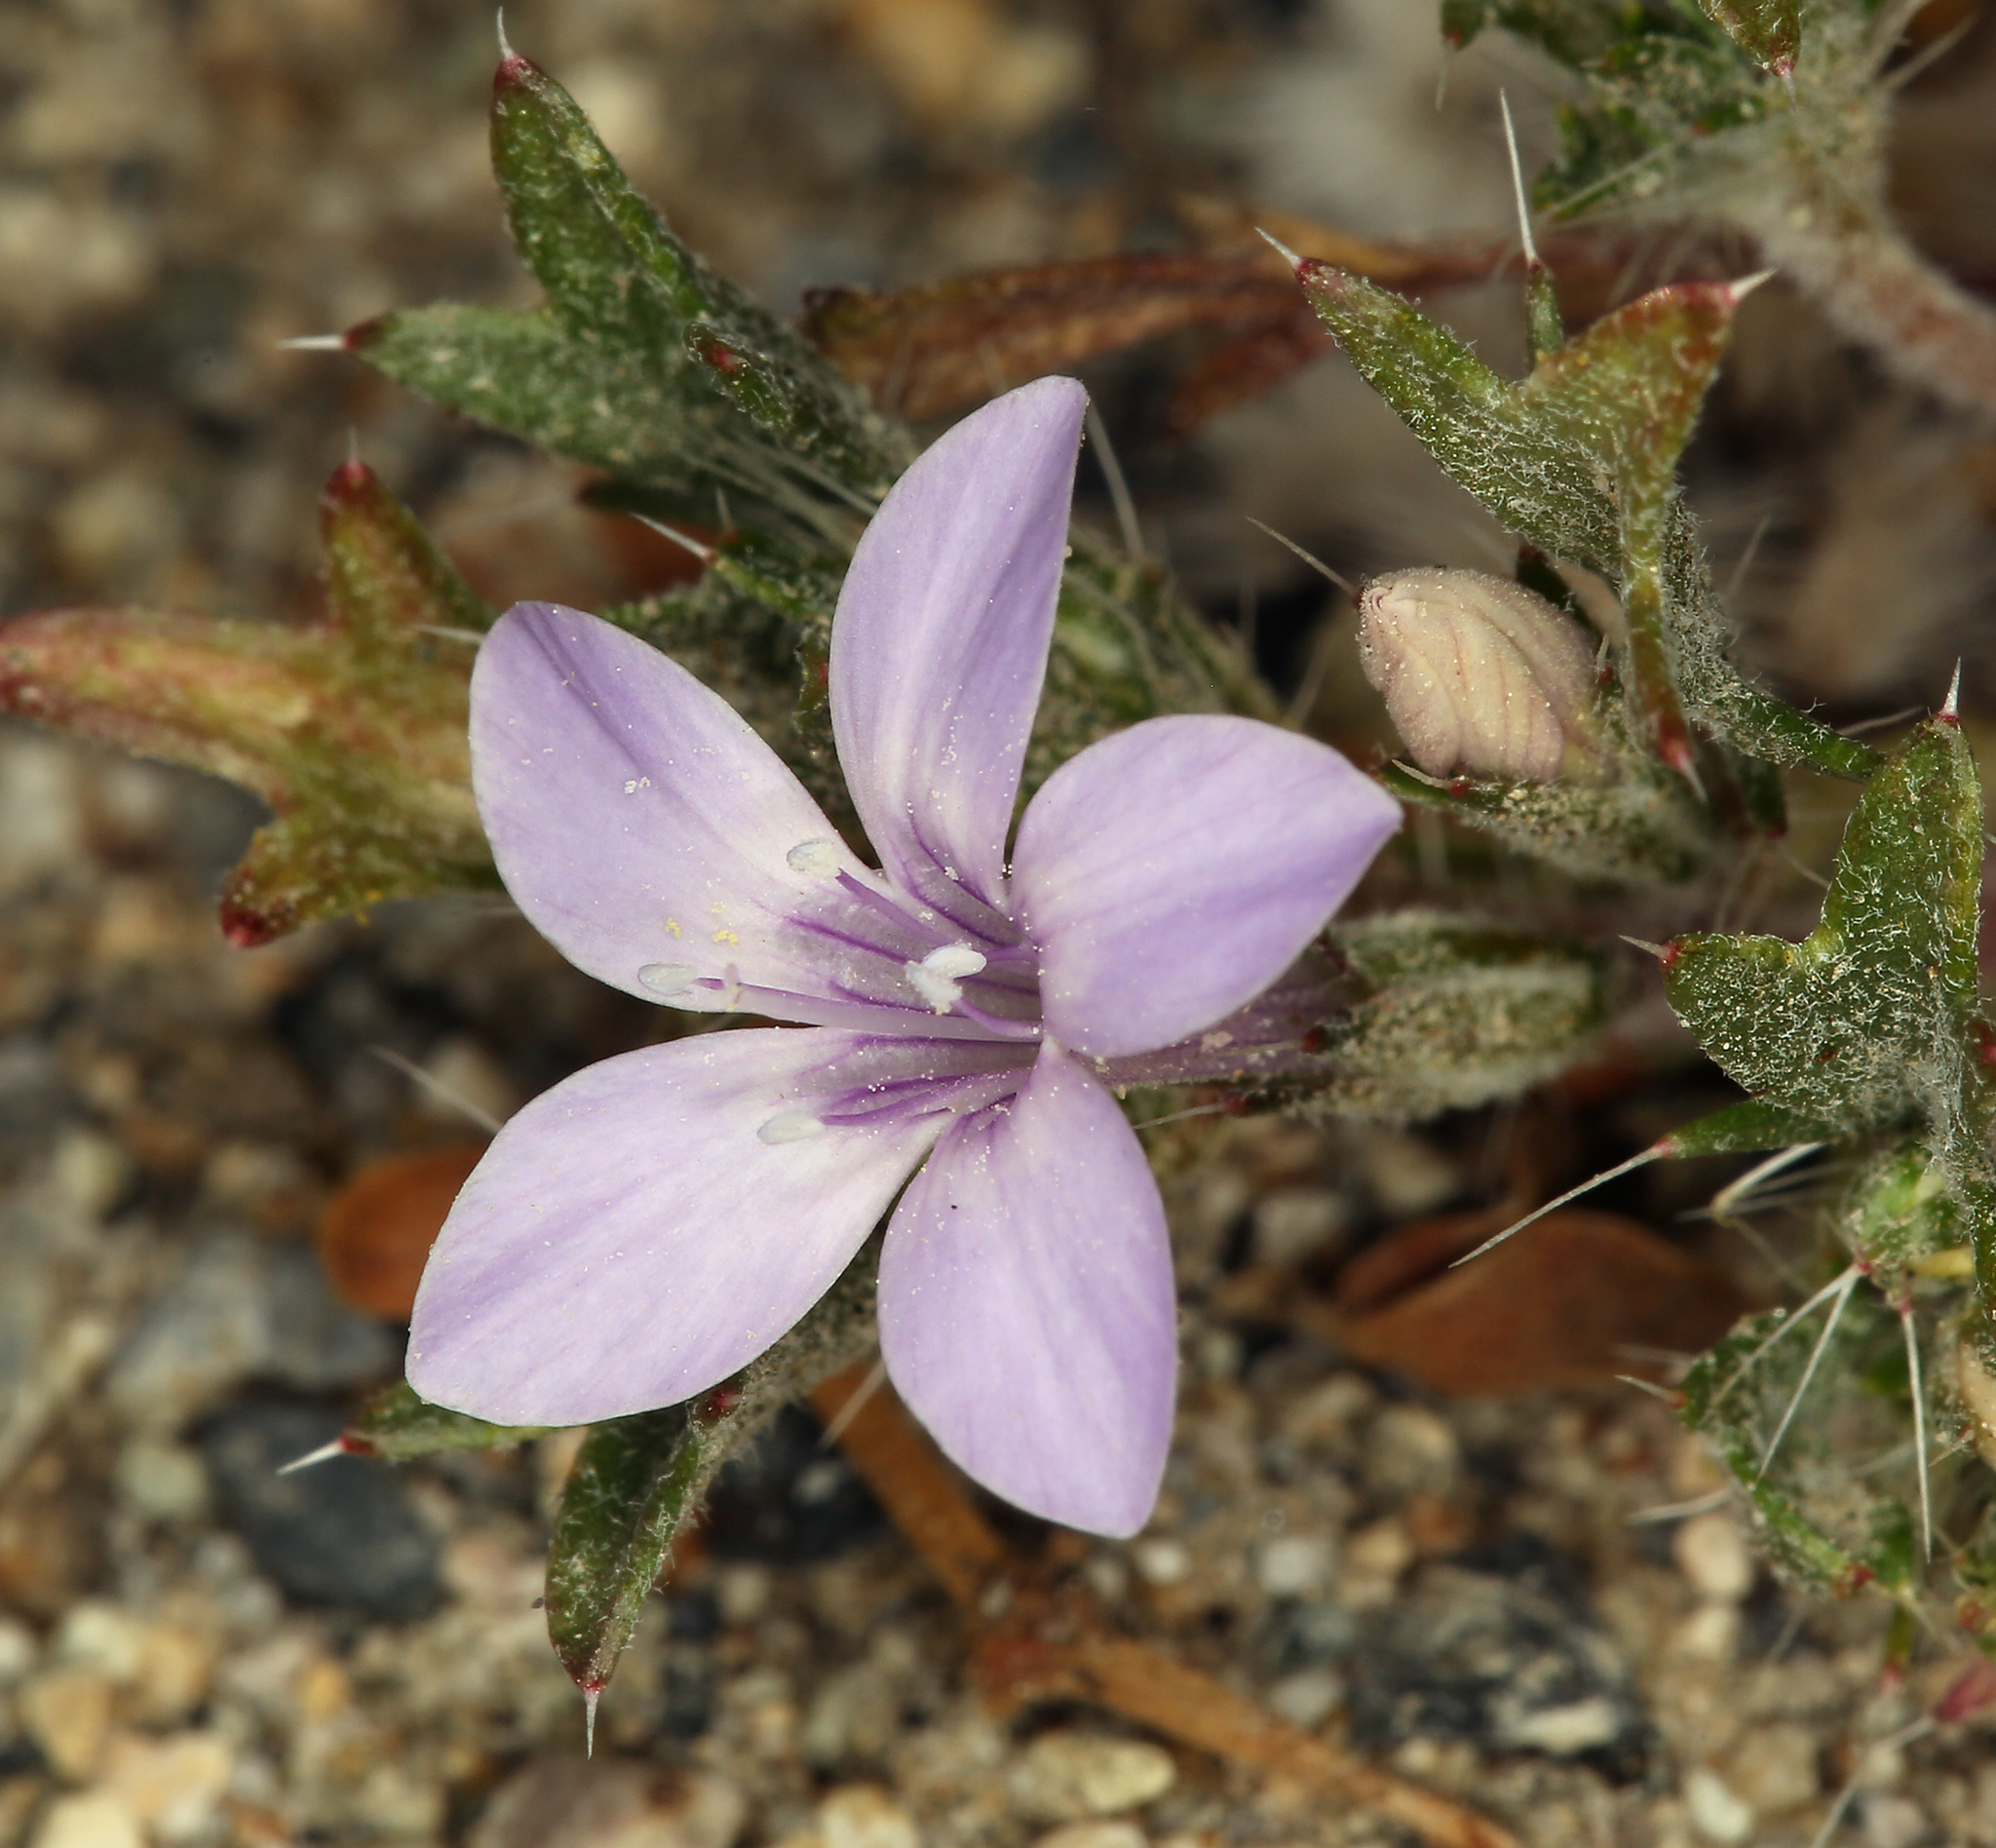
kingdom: Plantae
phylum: Tracheophyta
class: Magnoliopsida
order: Ericales
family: Polemoniaceae
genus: Langloisia
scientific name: Langloisia setosissima
